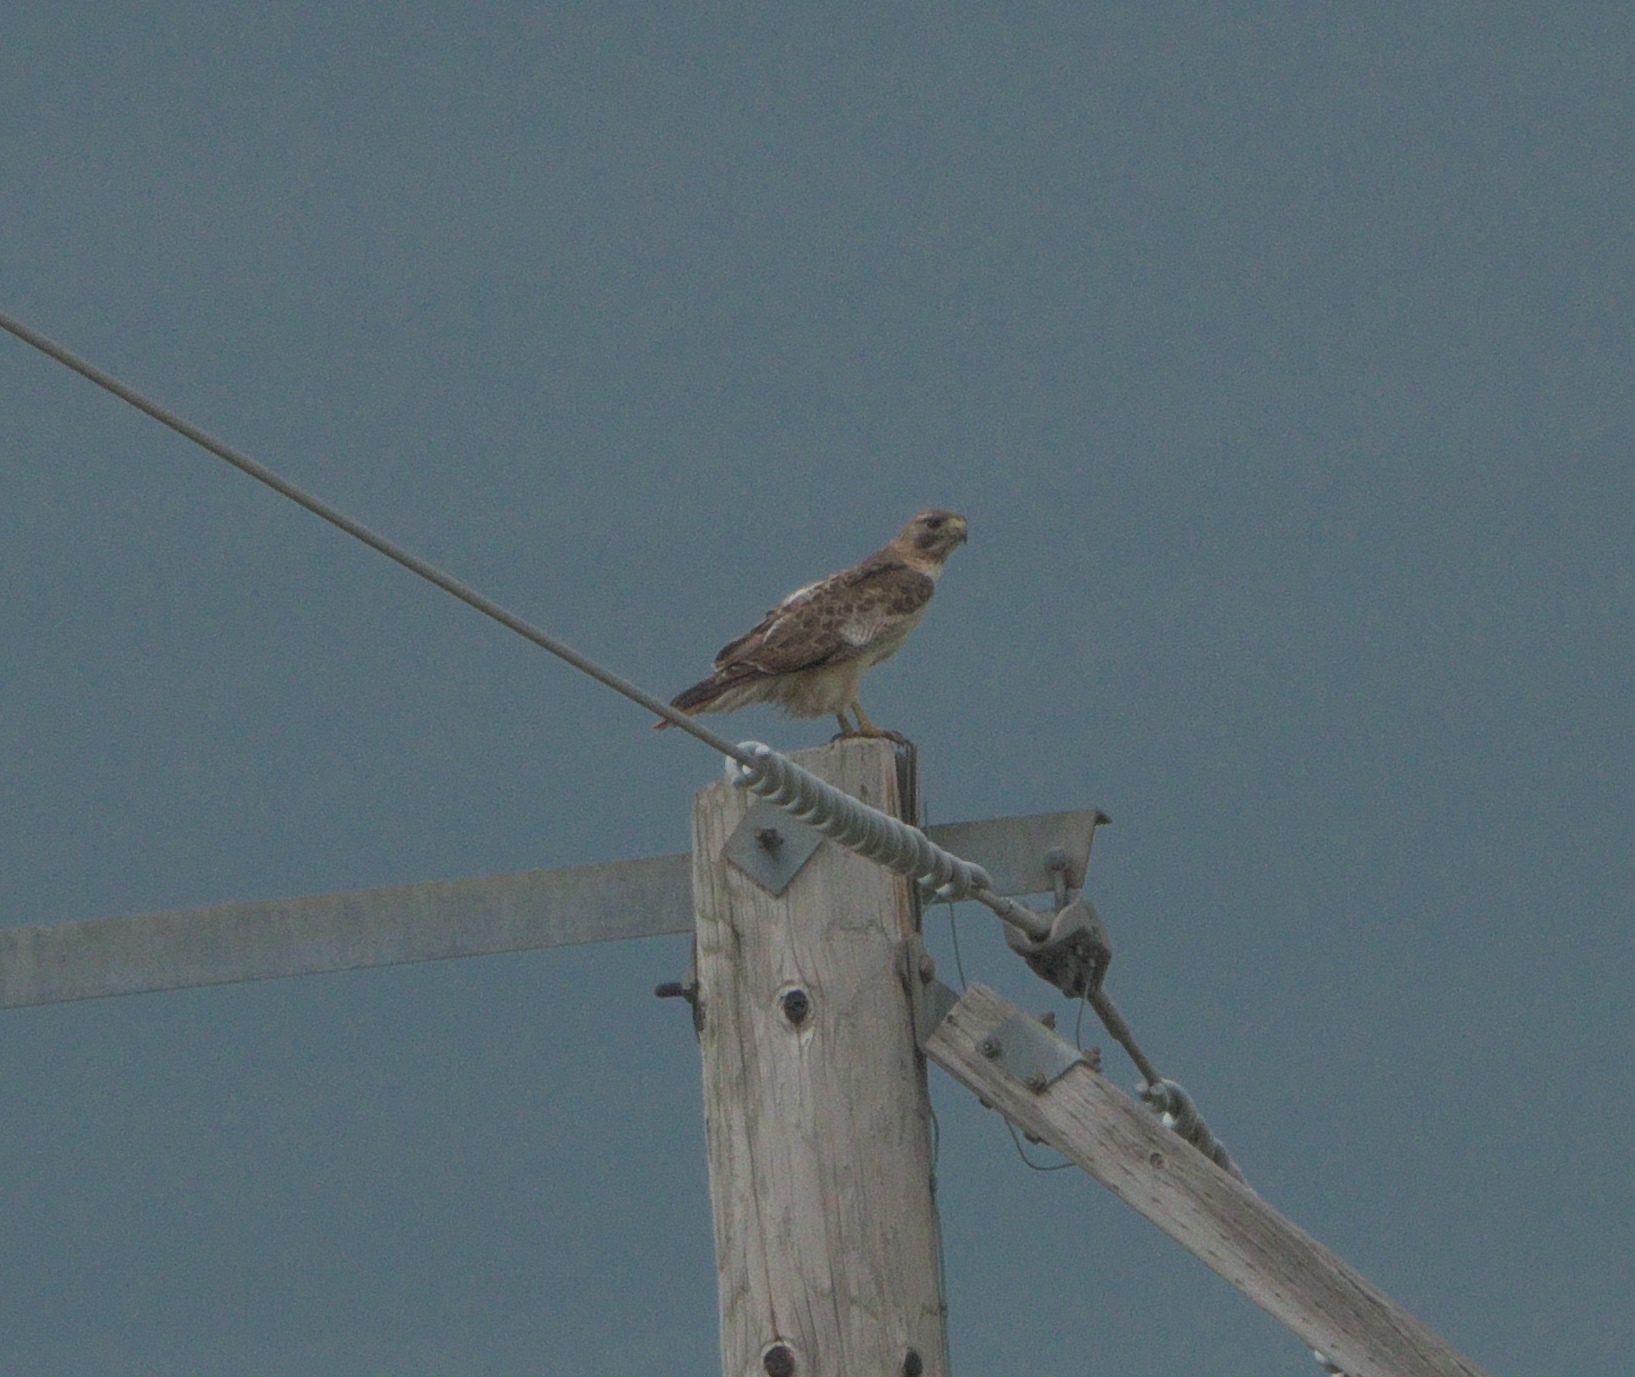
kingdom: Animalia
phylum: Chordata
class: Aves
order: Accipitriformes
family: Accipitridae
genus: Buteo
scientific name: Buteo jamaicensis
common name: Red-tailed hawk
